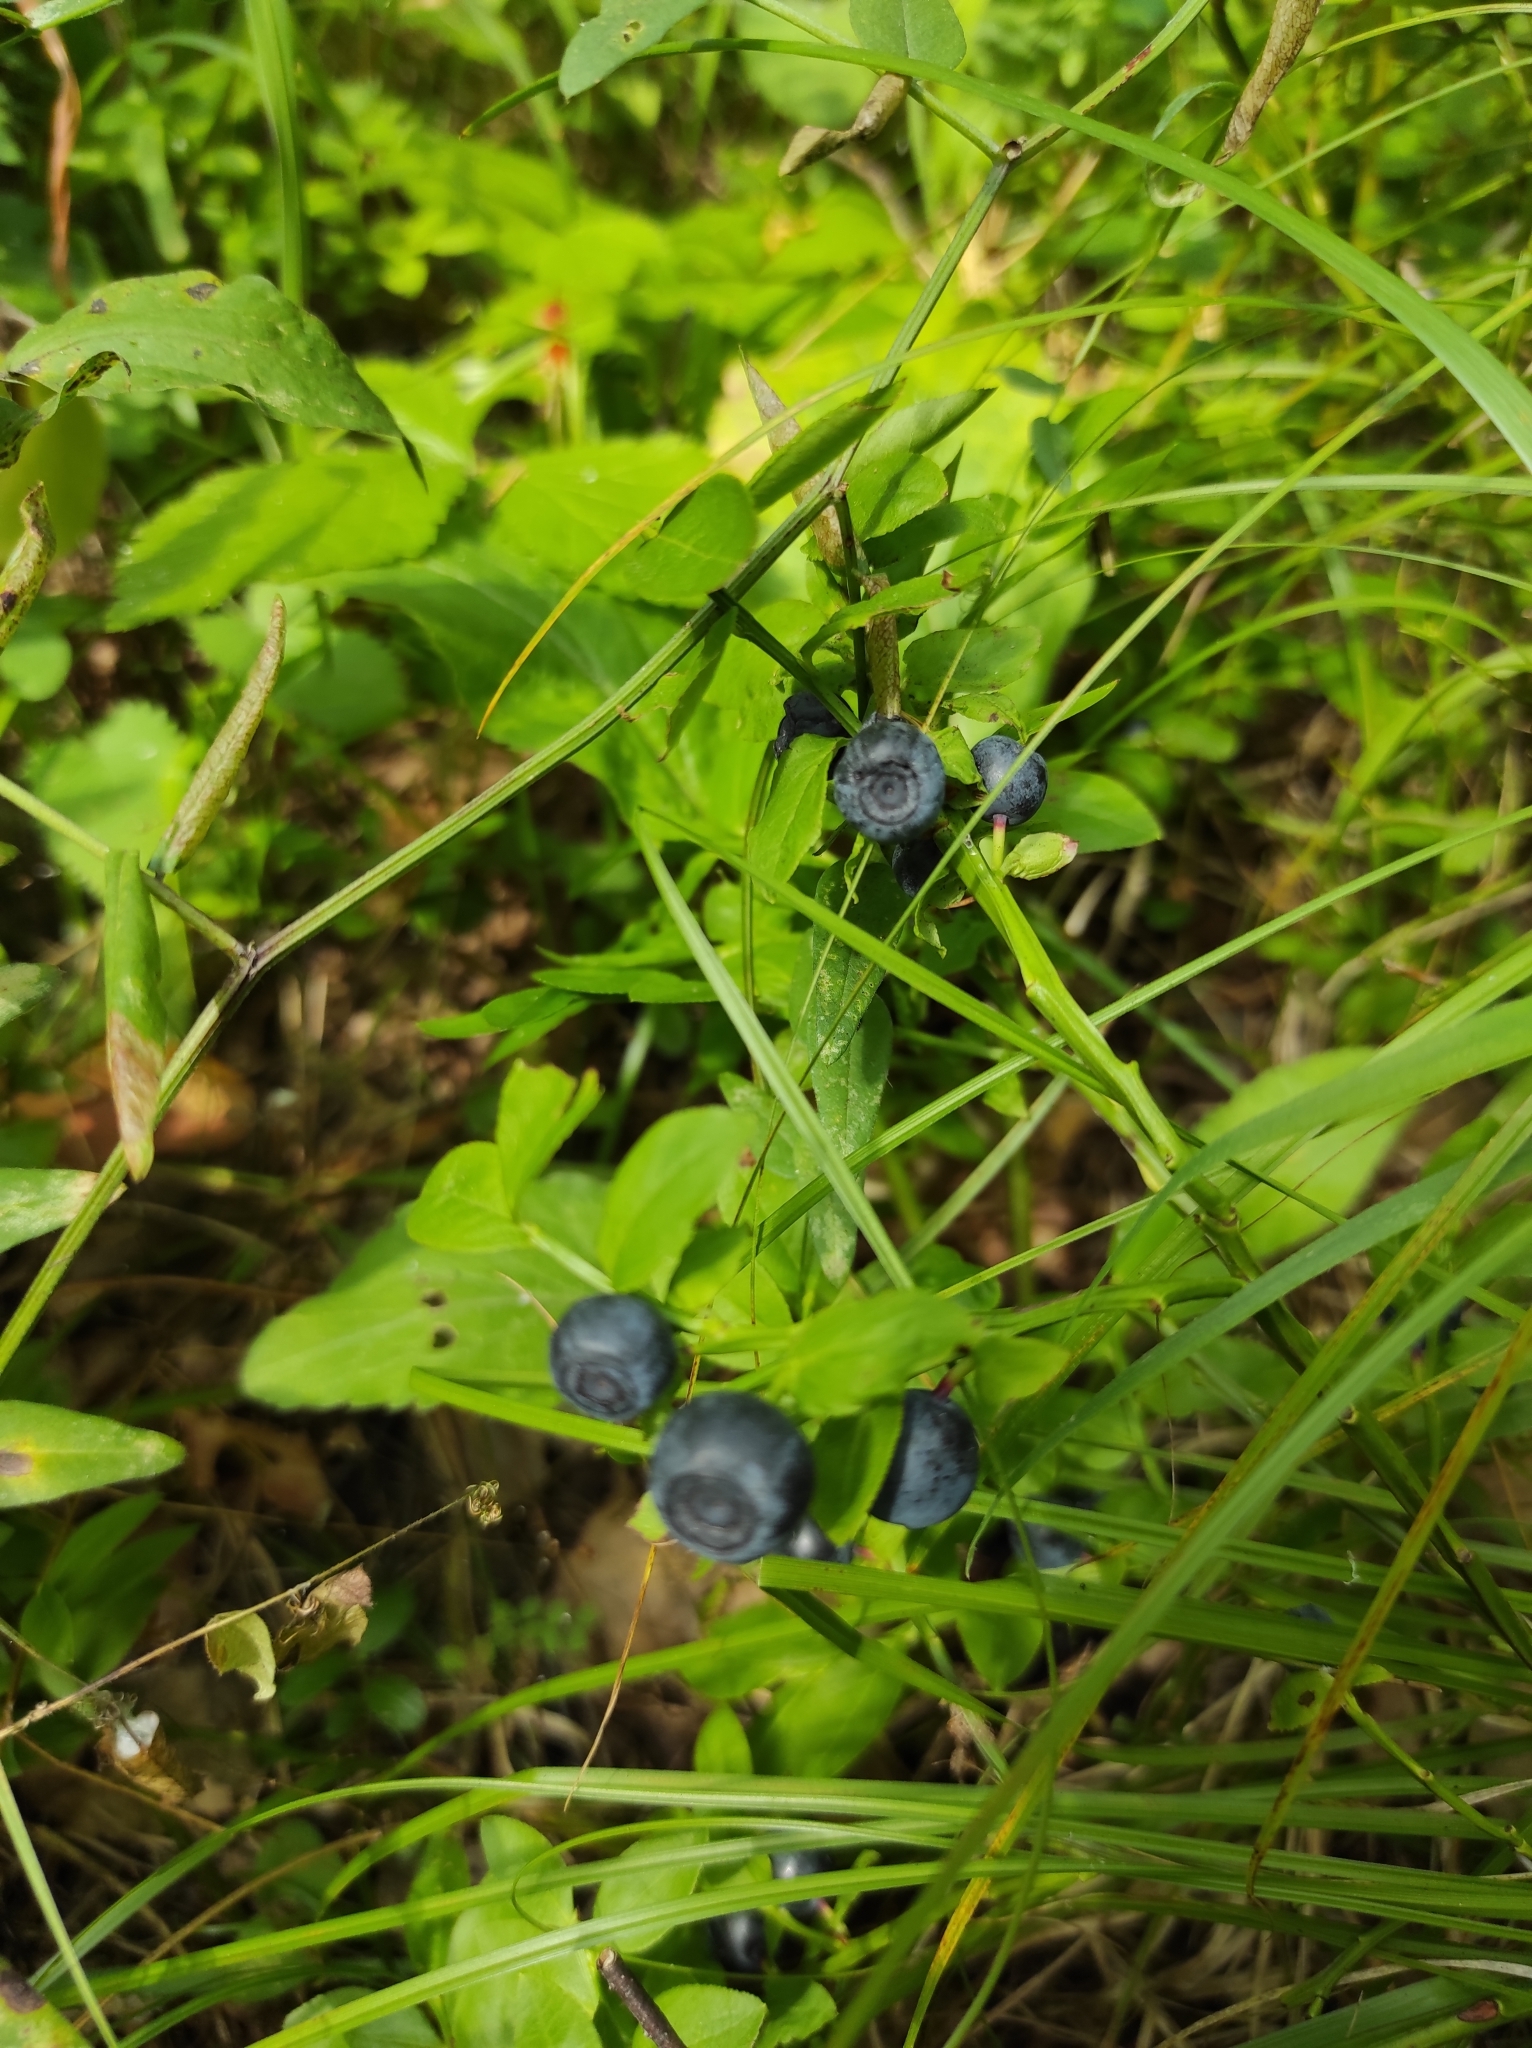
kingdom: Plantae
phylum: Tracheophyta
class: Magnoliopsida
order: Ericales
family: Ericaceae
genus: Vaccinium
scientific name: Vaccinium myrtillus
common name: Bilberry
